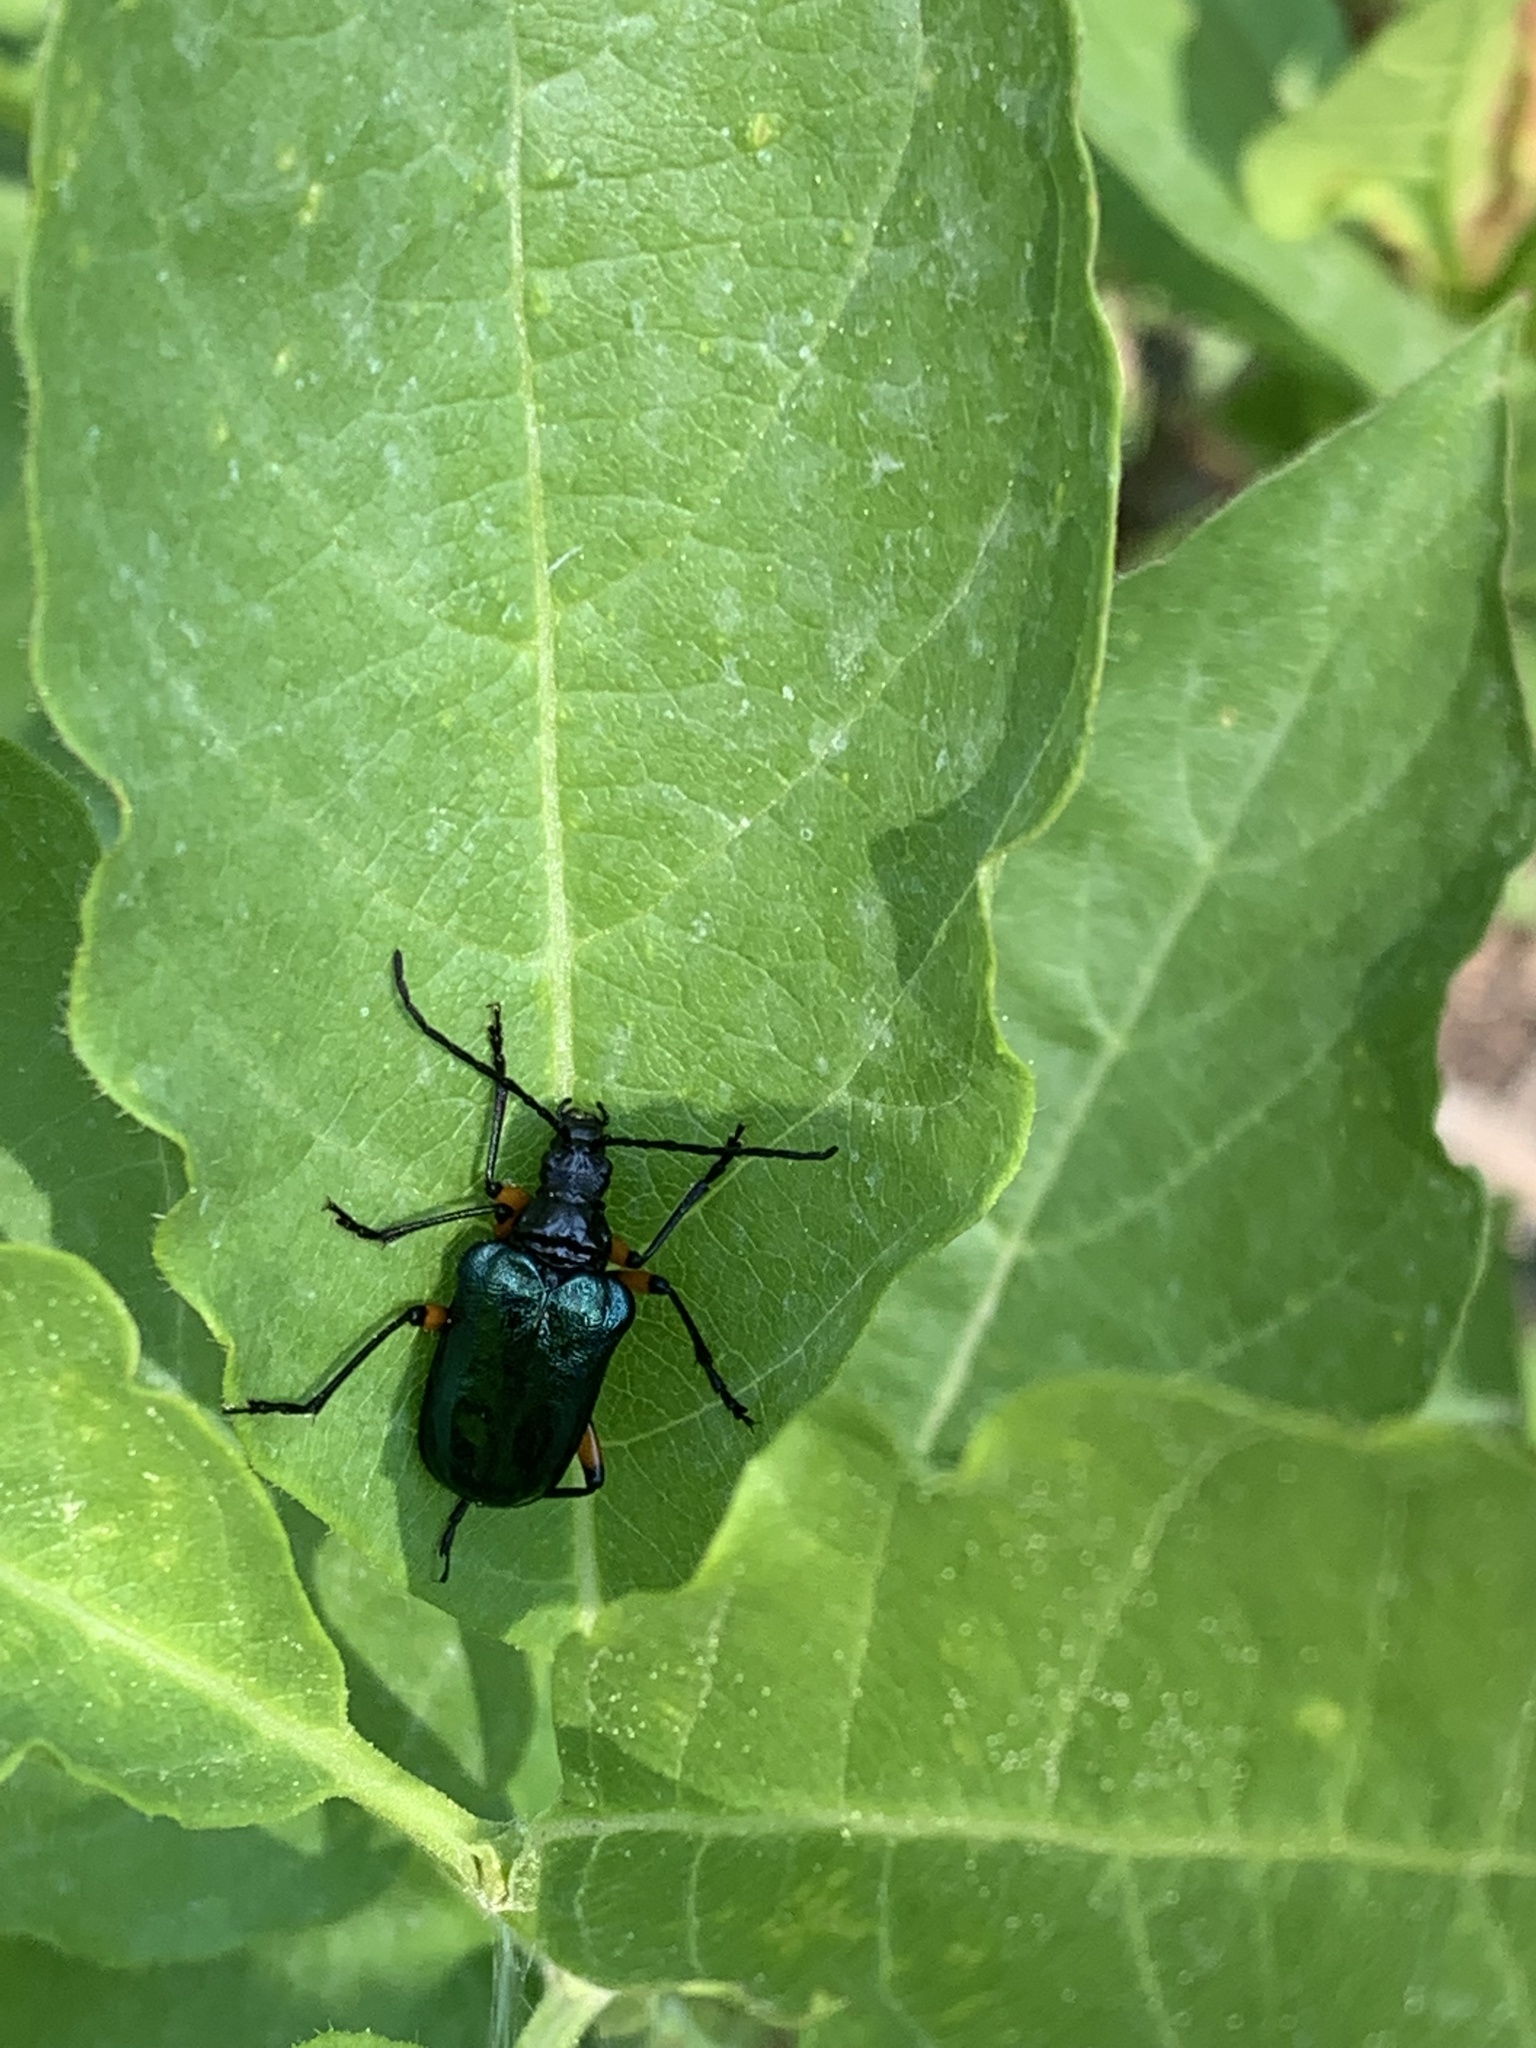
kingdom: Animalia
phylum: Arthropoda
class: Insecta
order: Coleoptera
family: Cerambycidae
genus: Pseudogaurotina
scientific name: Pseudogaurotina cressoni
